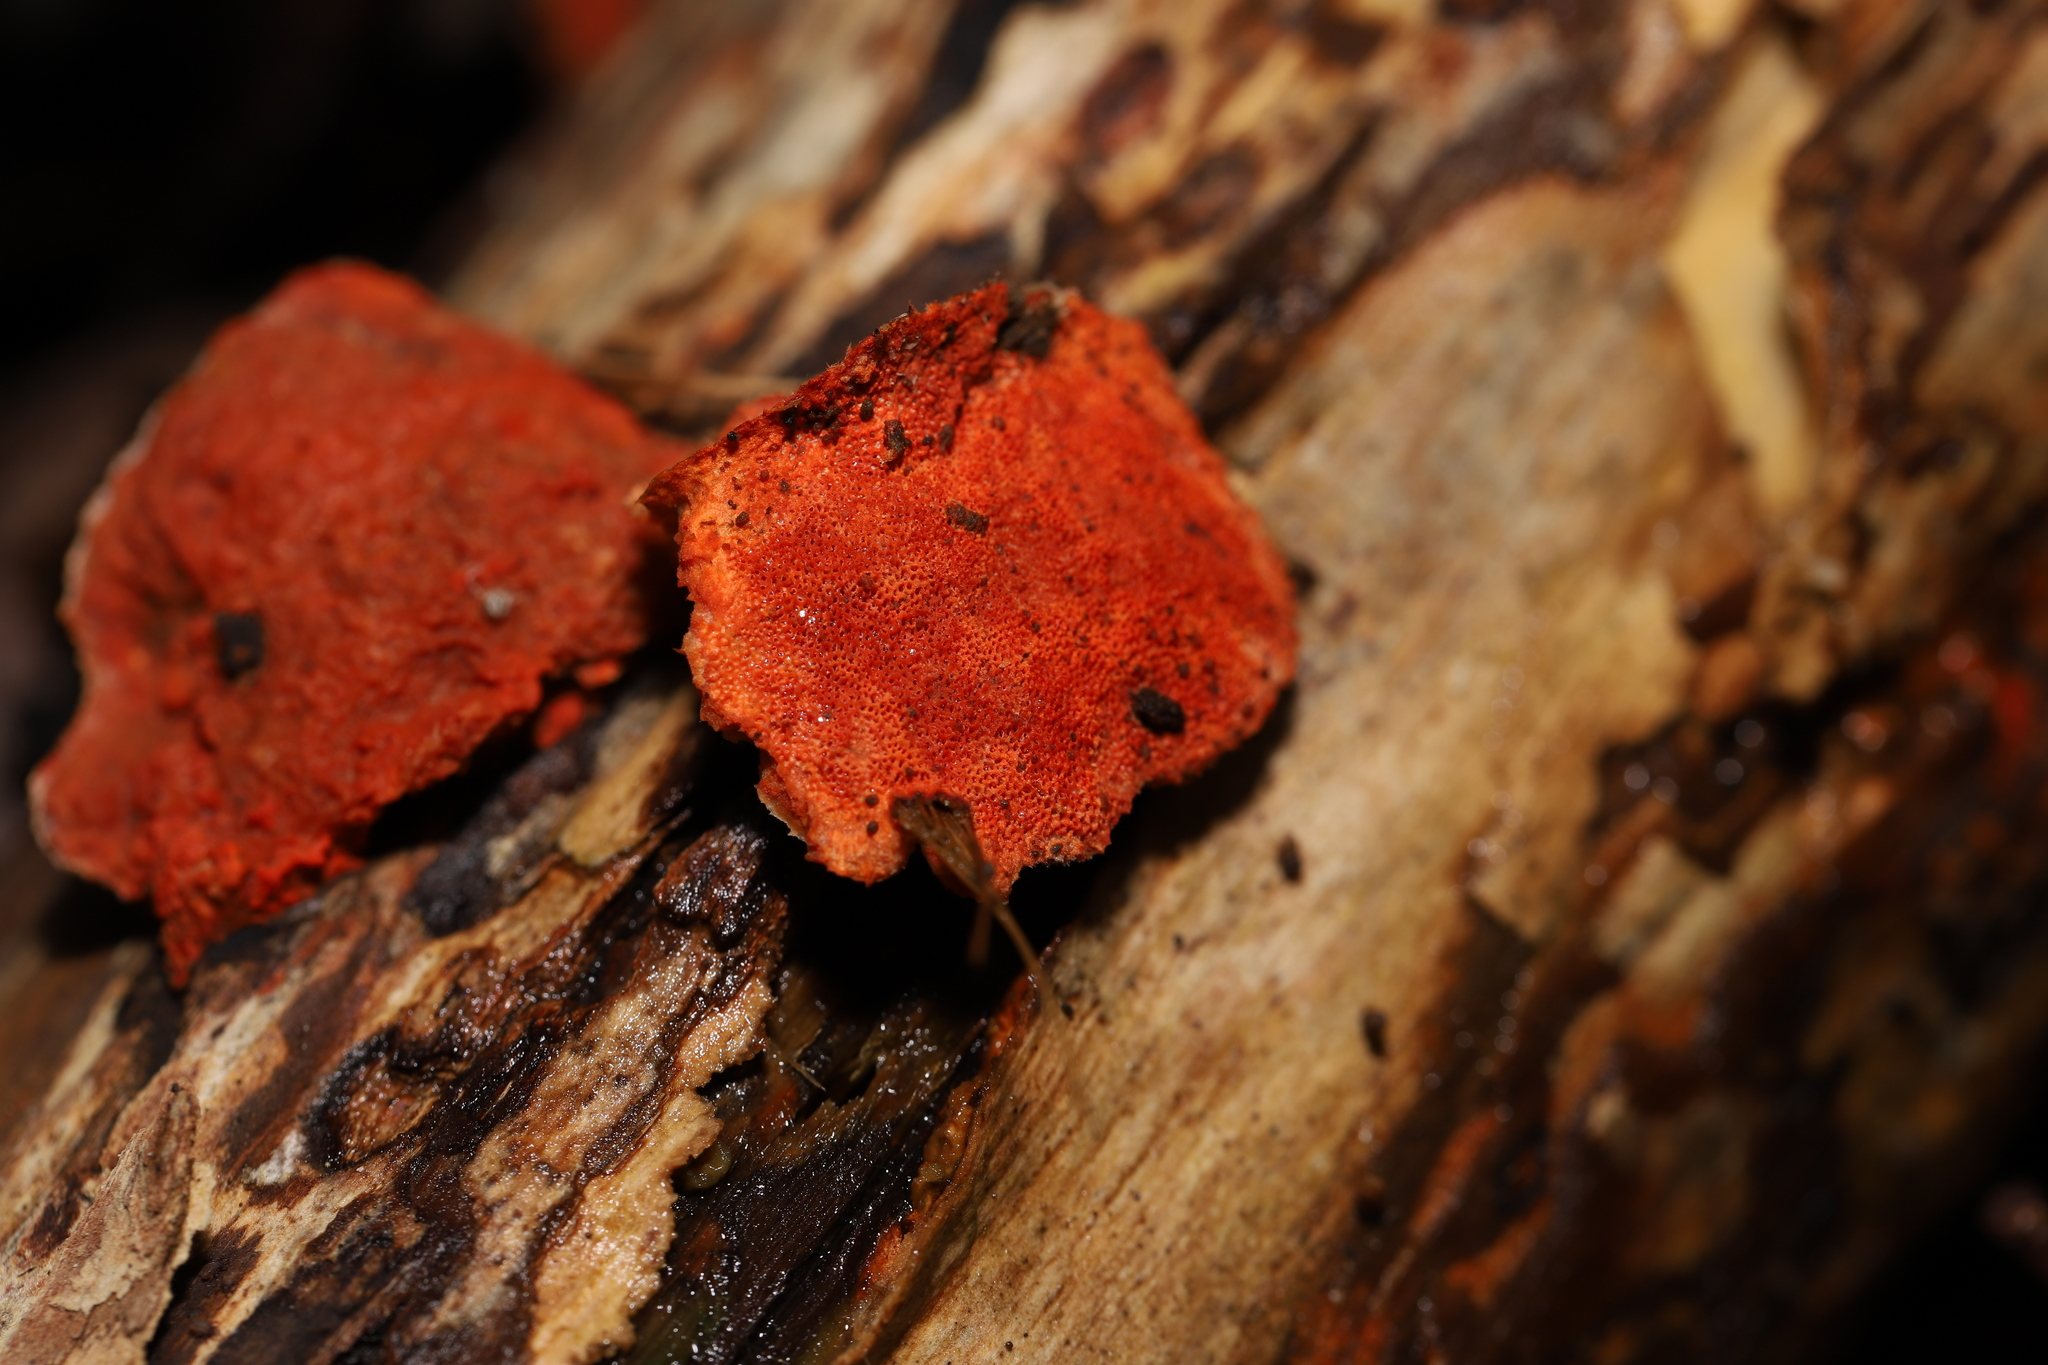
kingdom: Fungi
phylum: Basidiomycota
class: Agaricomycetes
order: Polyporales
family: Polyporaceae
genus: Trametes
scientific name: Trametes coccinea
